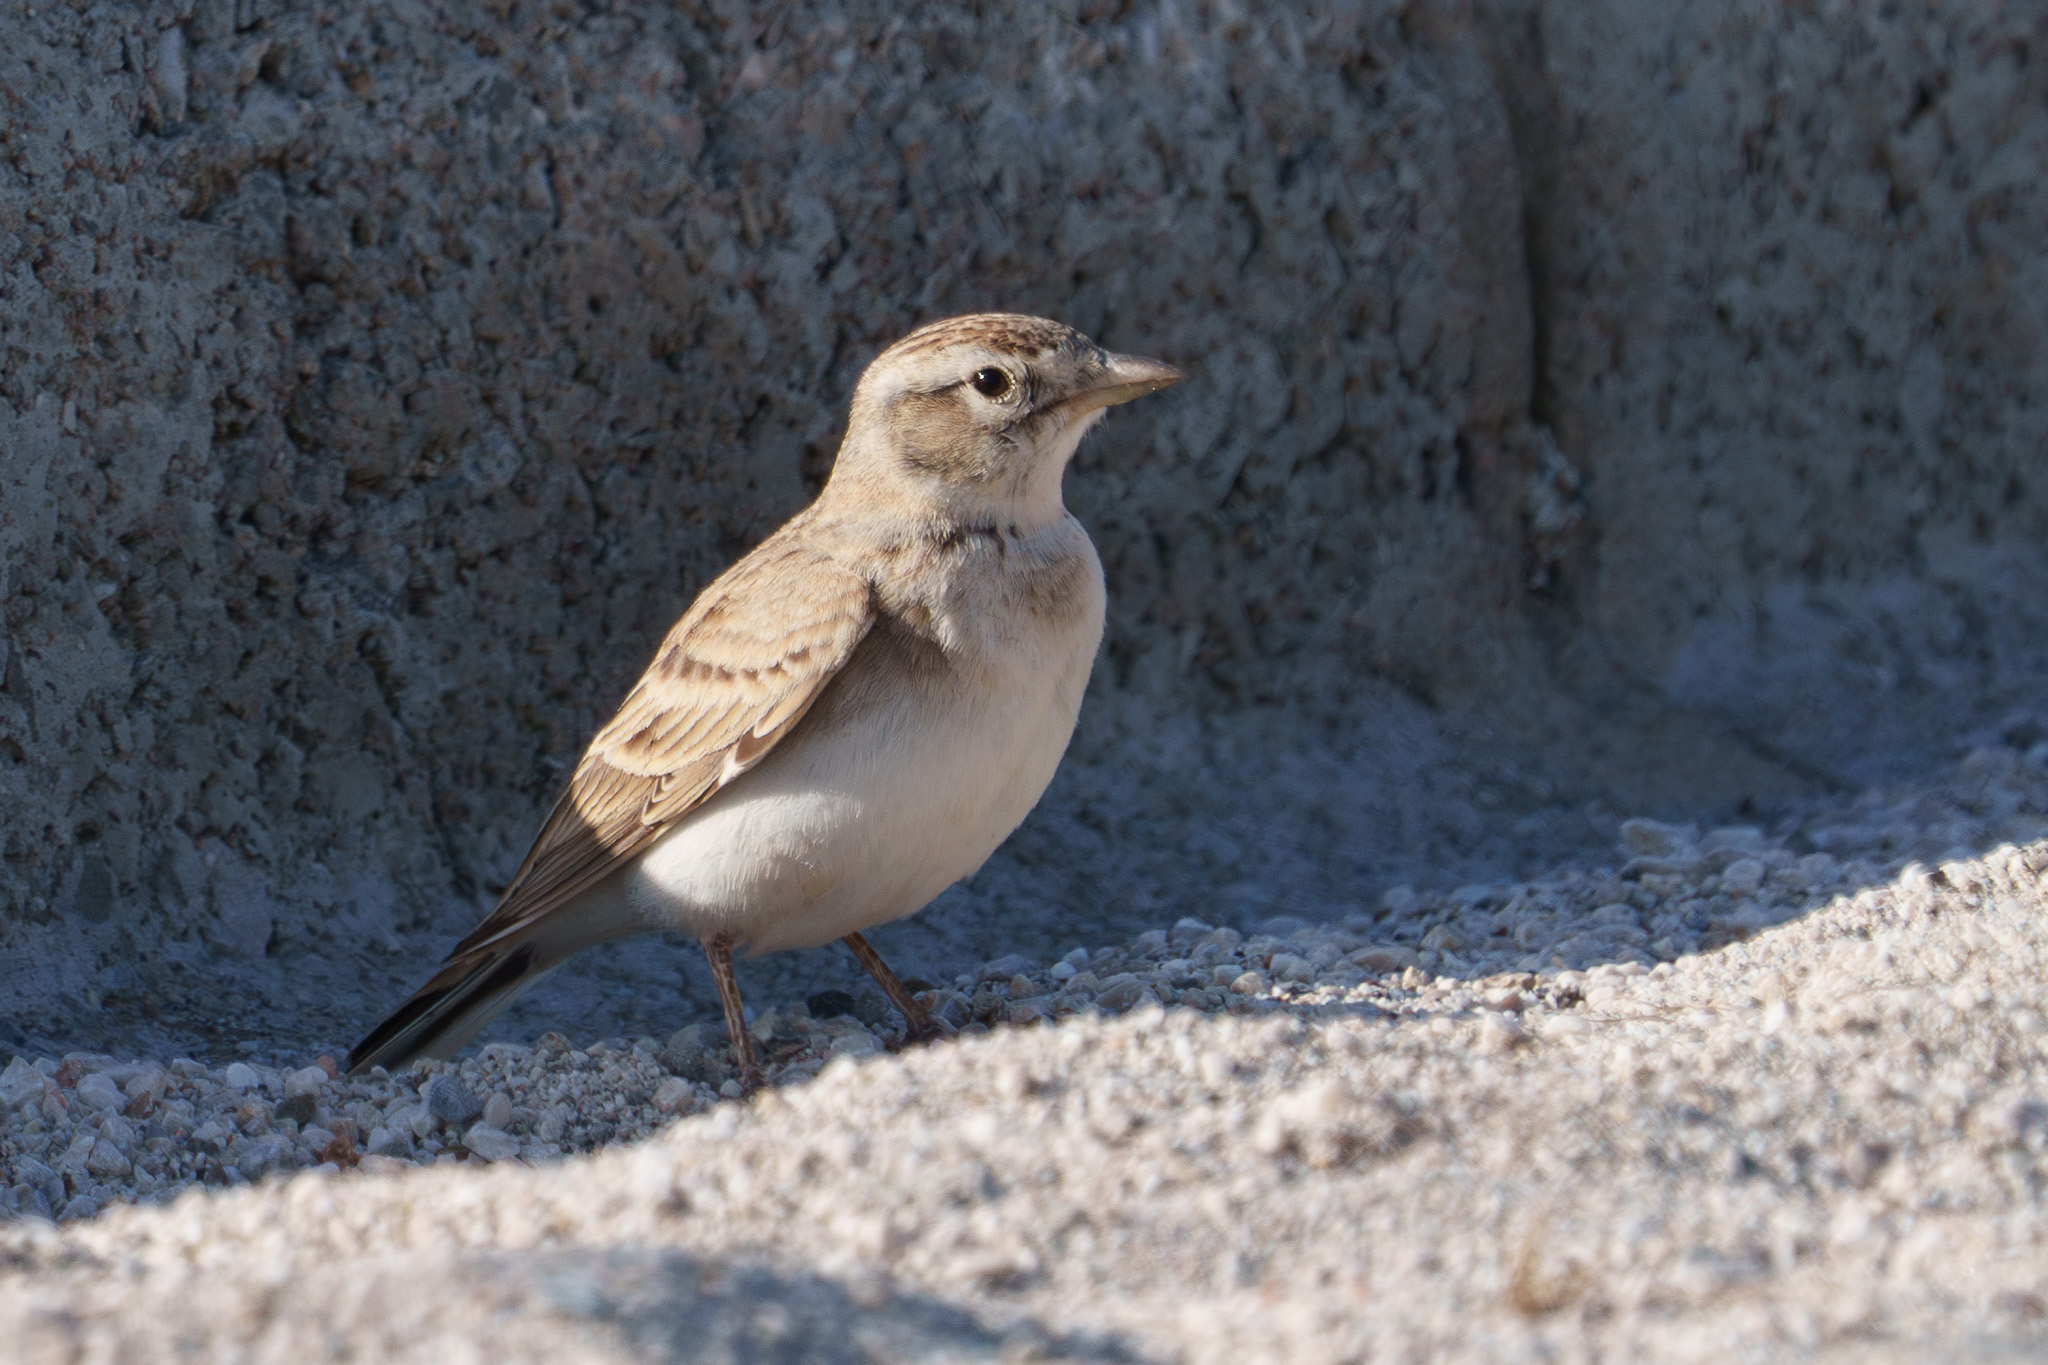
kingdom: Animalia
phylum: Chordata
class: Aves
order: Passeriformes
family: Alaudidae
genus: Calandrella
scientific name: Calandrella brachydactyla
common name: Greater short-toed lark
